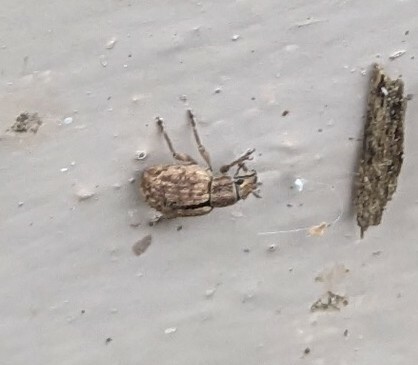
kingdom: Animalia
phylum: Arthropoda
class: Insecta
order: Coleoptera
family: Curculionidae
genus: Strophosoma
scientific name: Strophosoma melanogrammum
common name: Weevil
